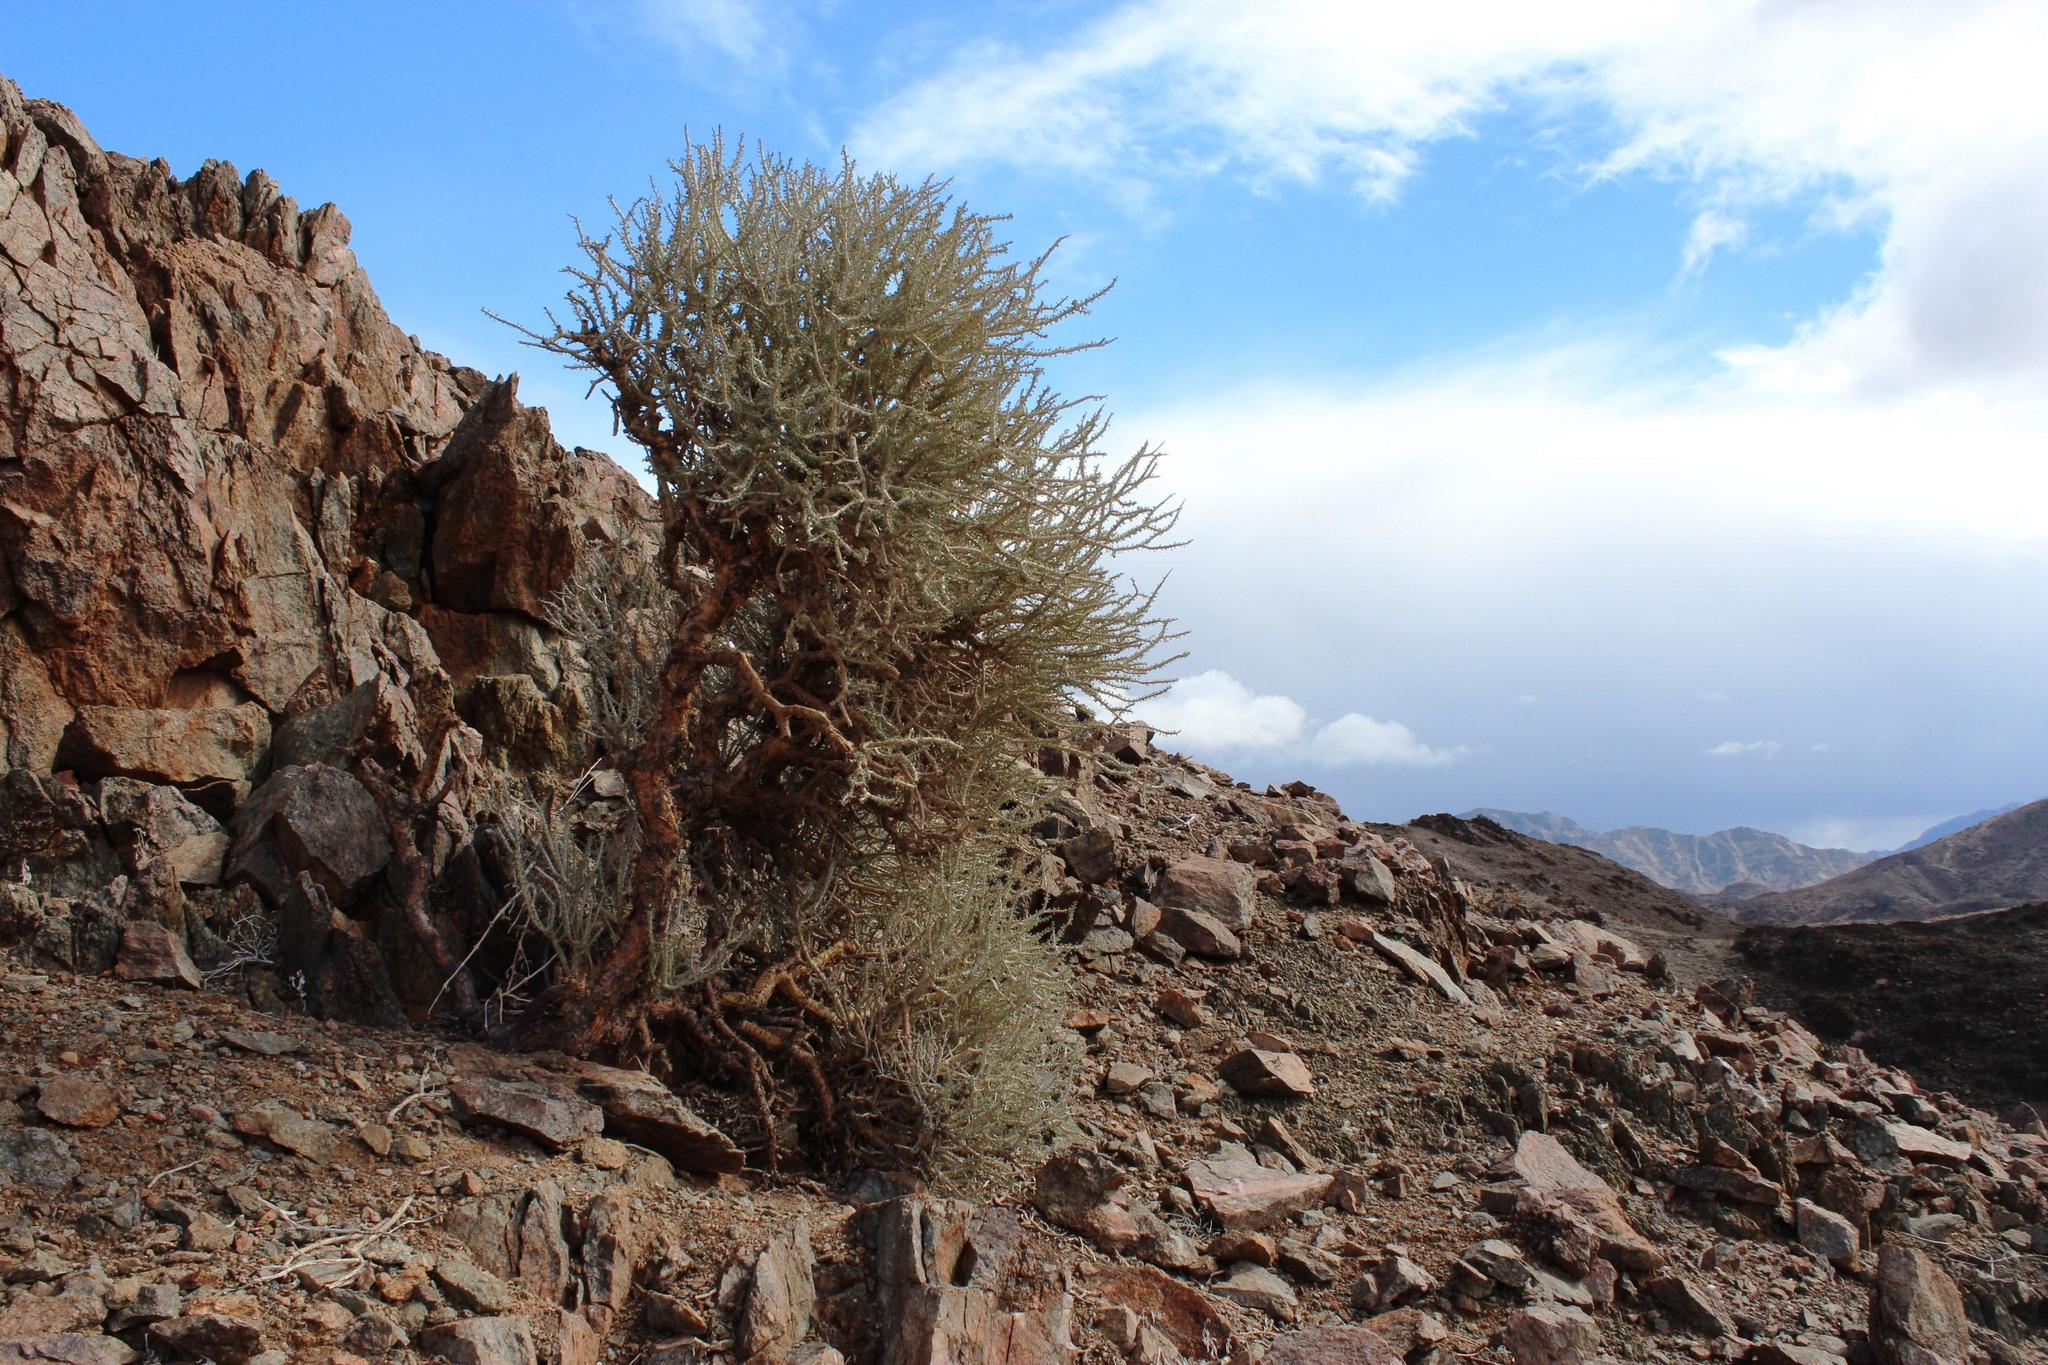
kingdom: Plantae
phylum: Tracheophyta
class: Magnoliopsida
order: Caryophyllales
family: Didiereaceae
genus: Portulacaria
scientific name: Portulacaria namaquensis
